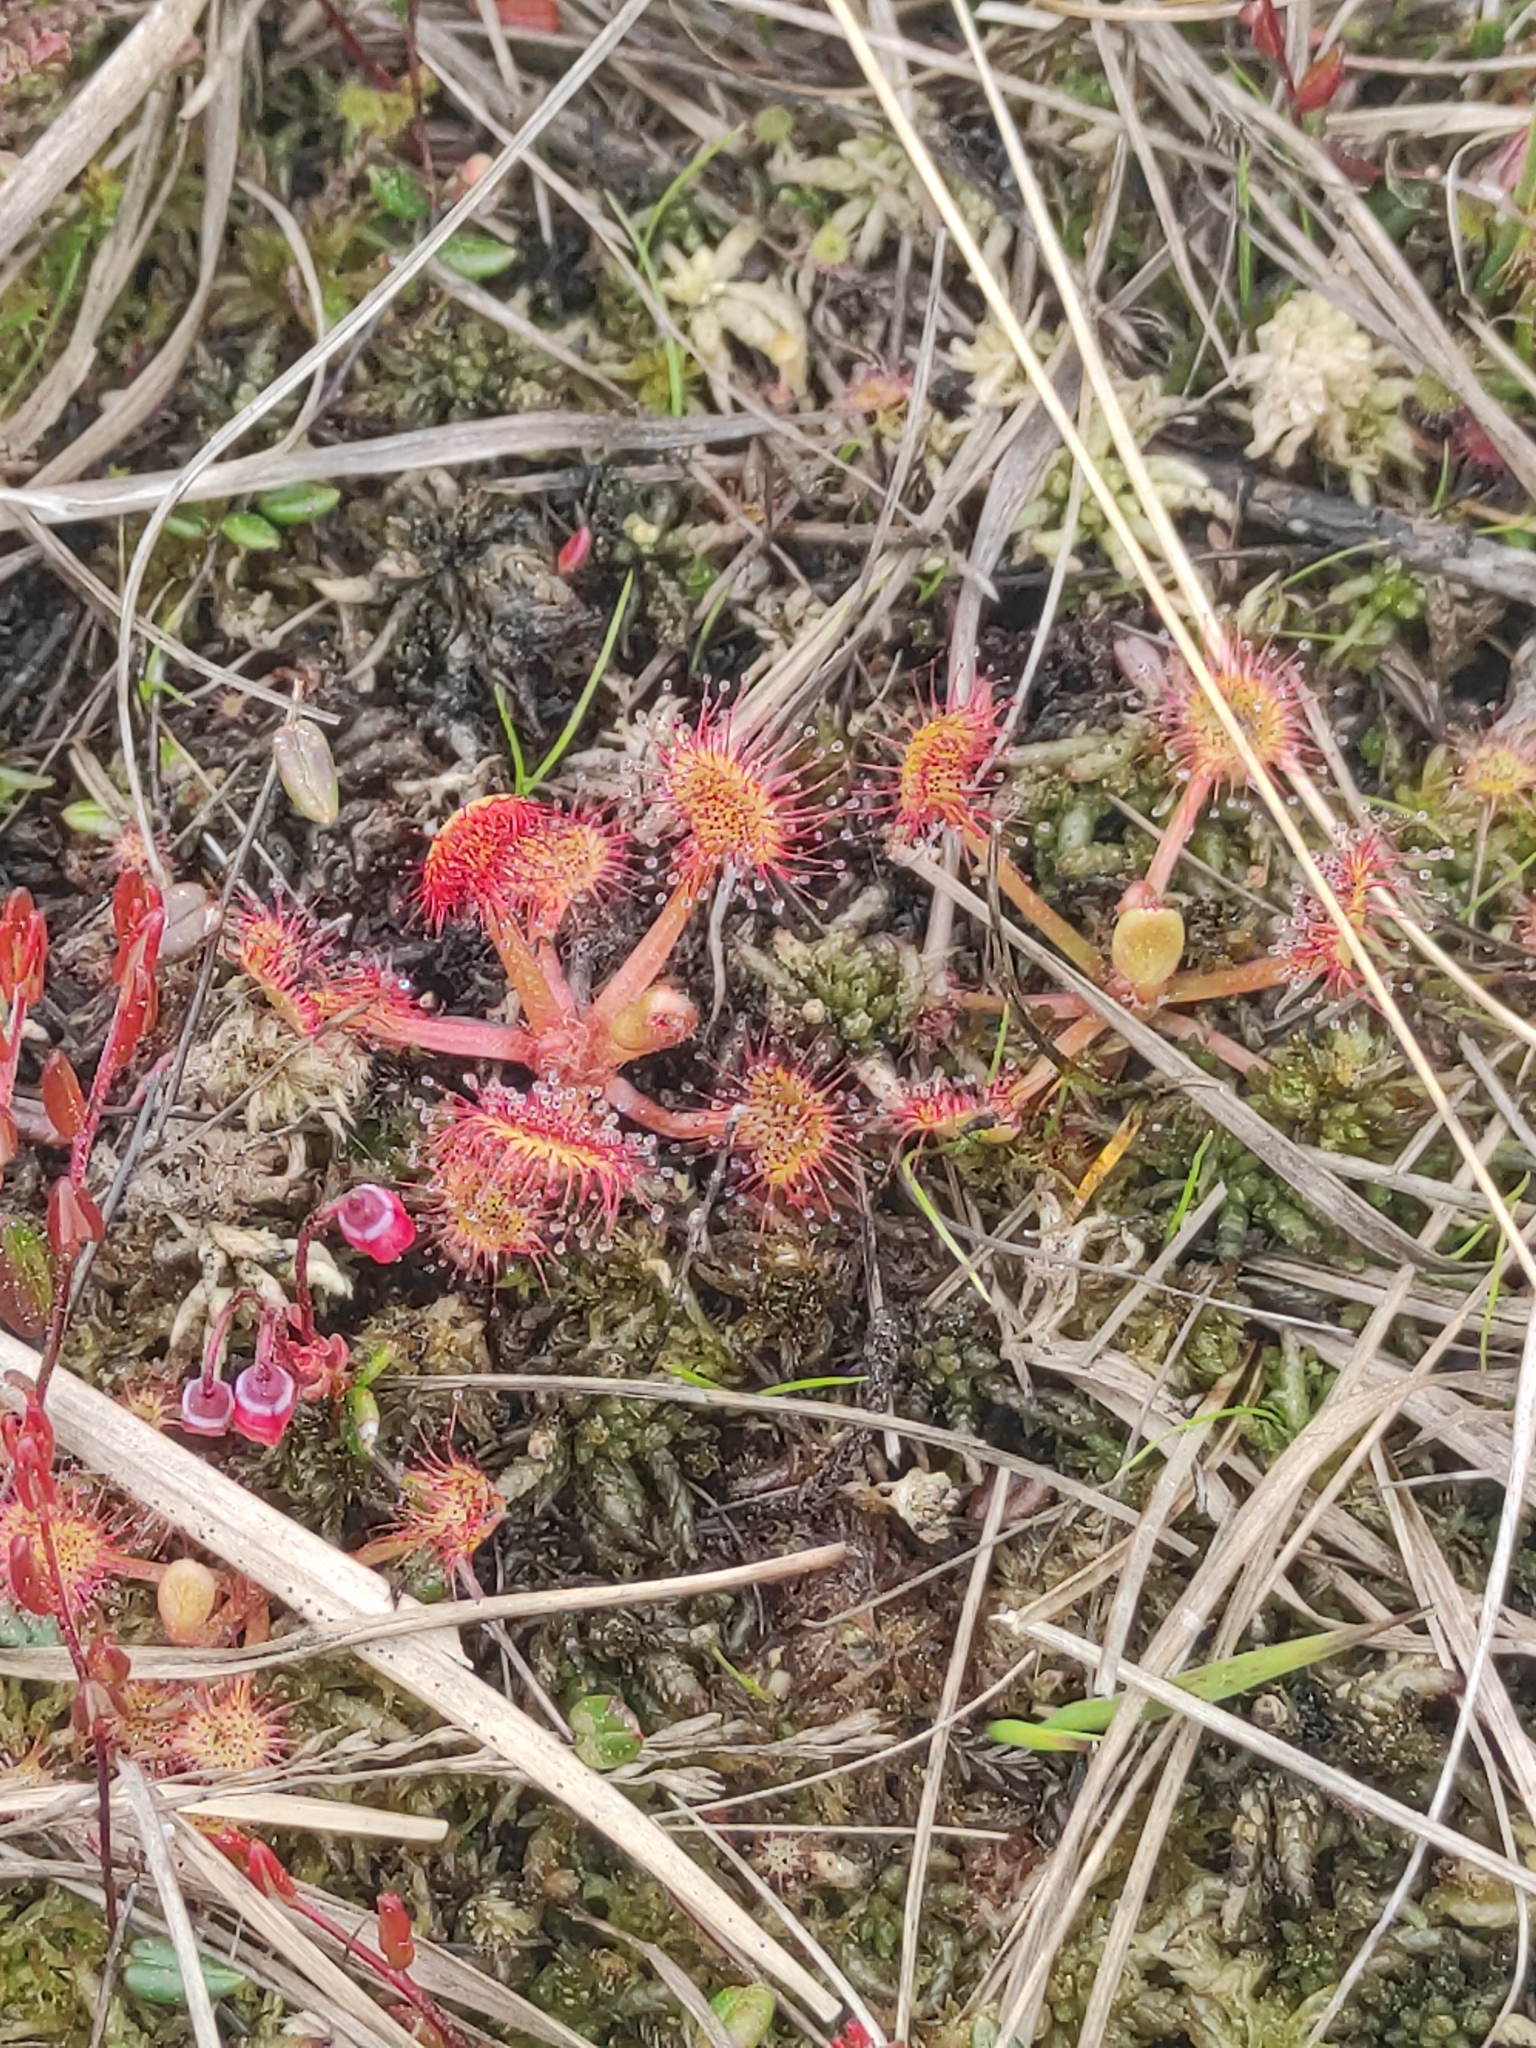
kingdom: Plantae
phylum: Tracheophyta
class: Magnoliopsida
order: Caryophyllales
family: Droseraceae
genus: Drosera
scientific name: Drosera rotundifolia
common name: Round-leaved sundew
